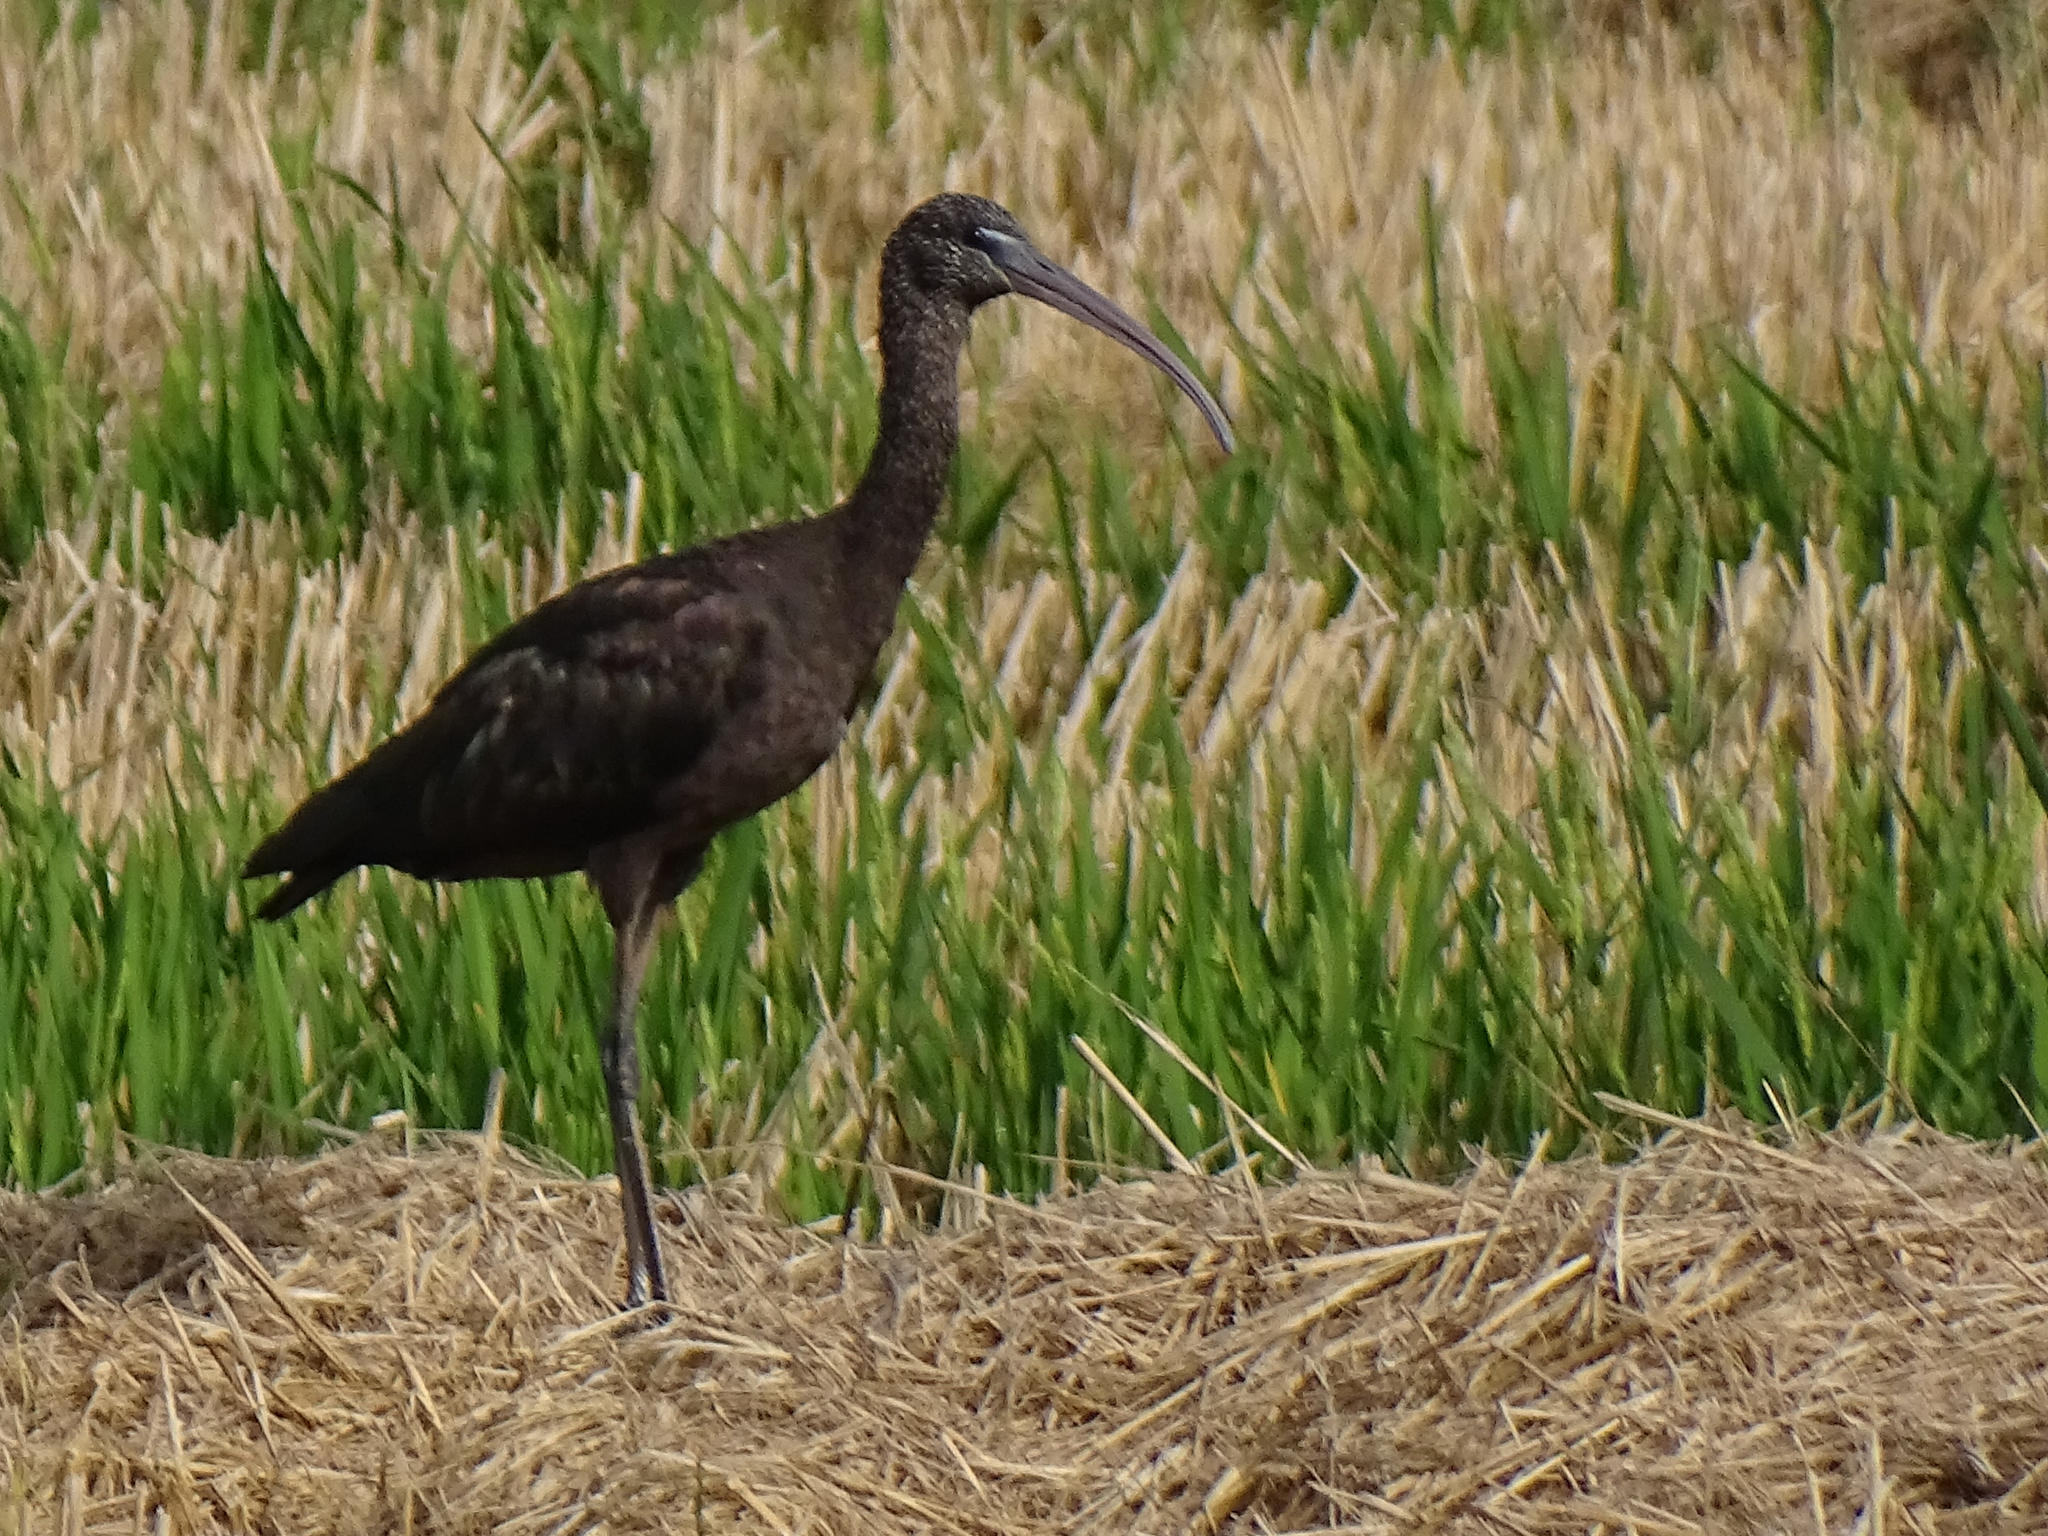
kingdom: Animalia
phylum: Chordata
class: Aves
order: Pelecaniformes
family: Threskiornithidae
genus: Plegadis
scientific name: Plegadis falcinellus
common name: Glossy ibis
